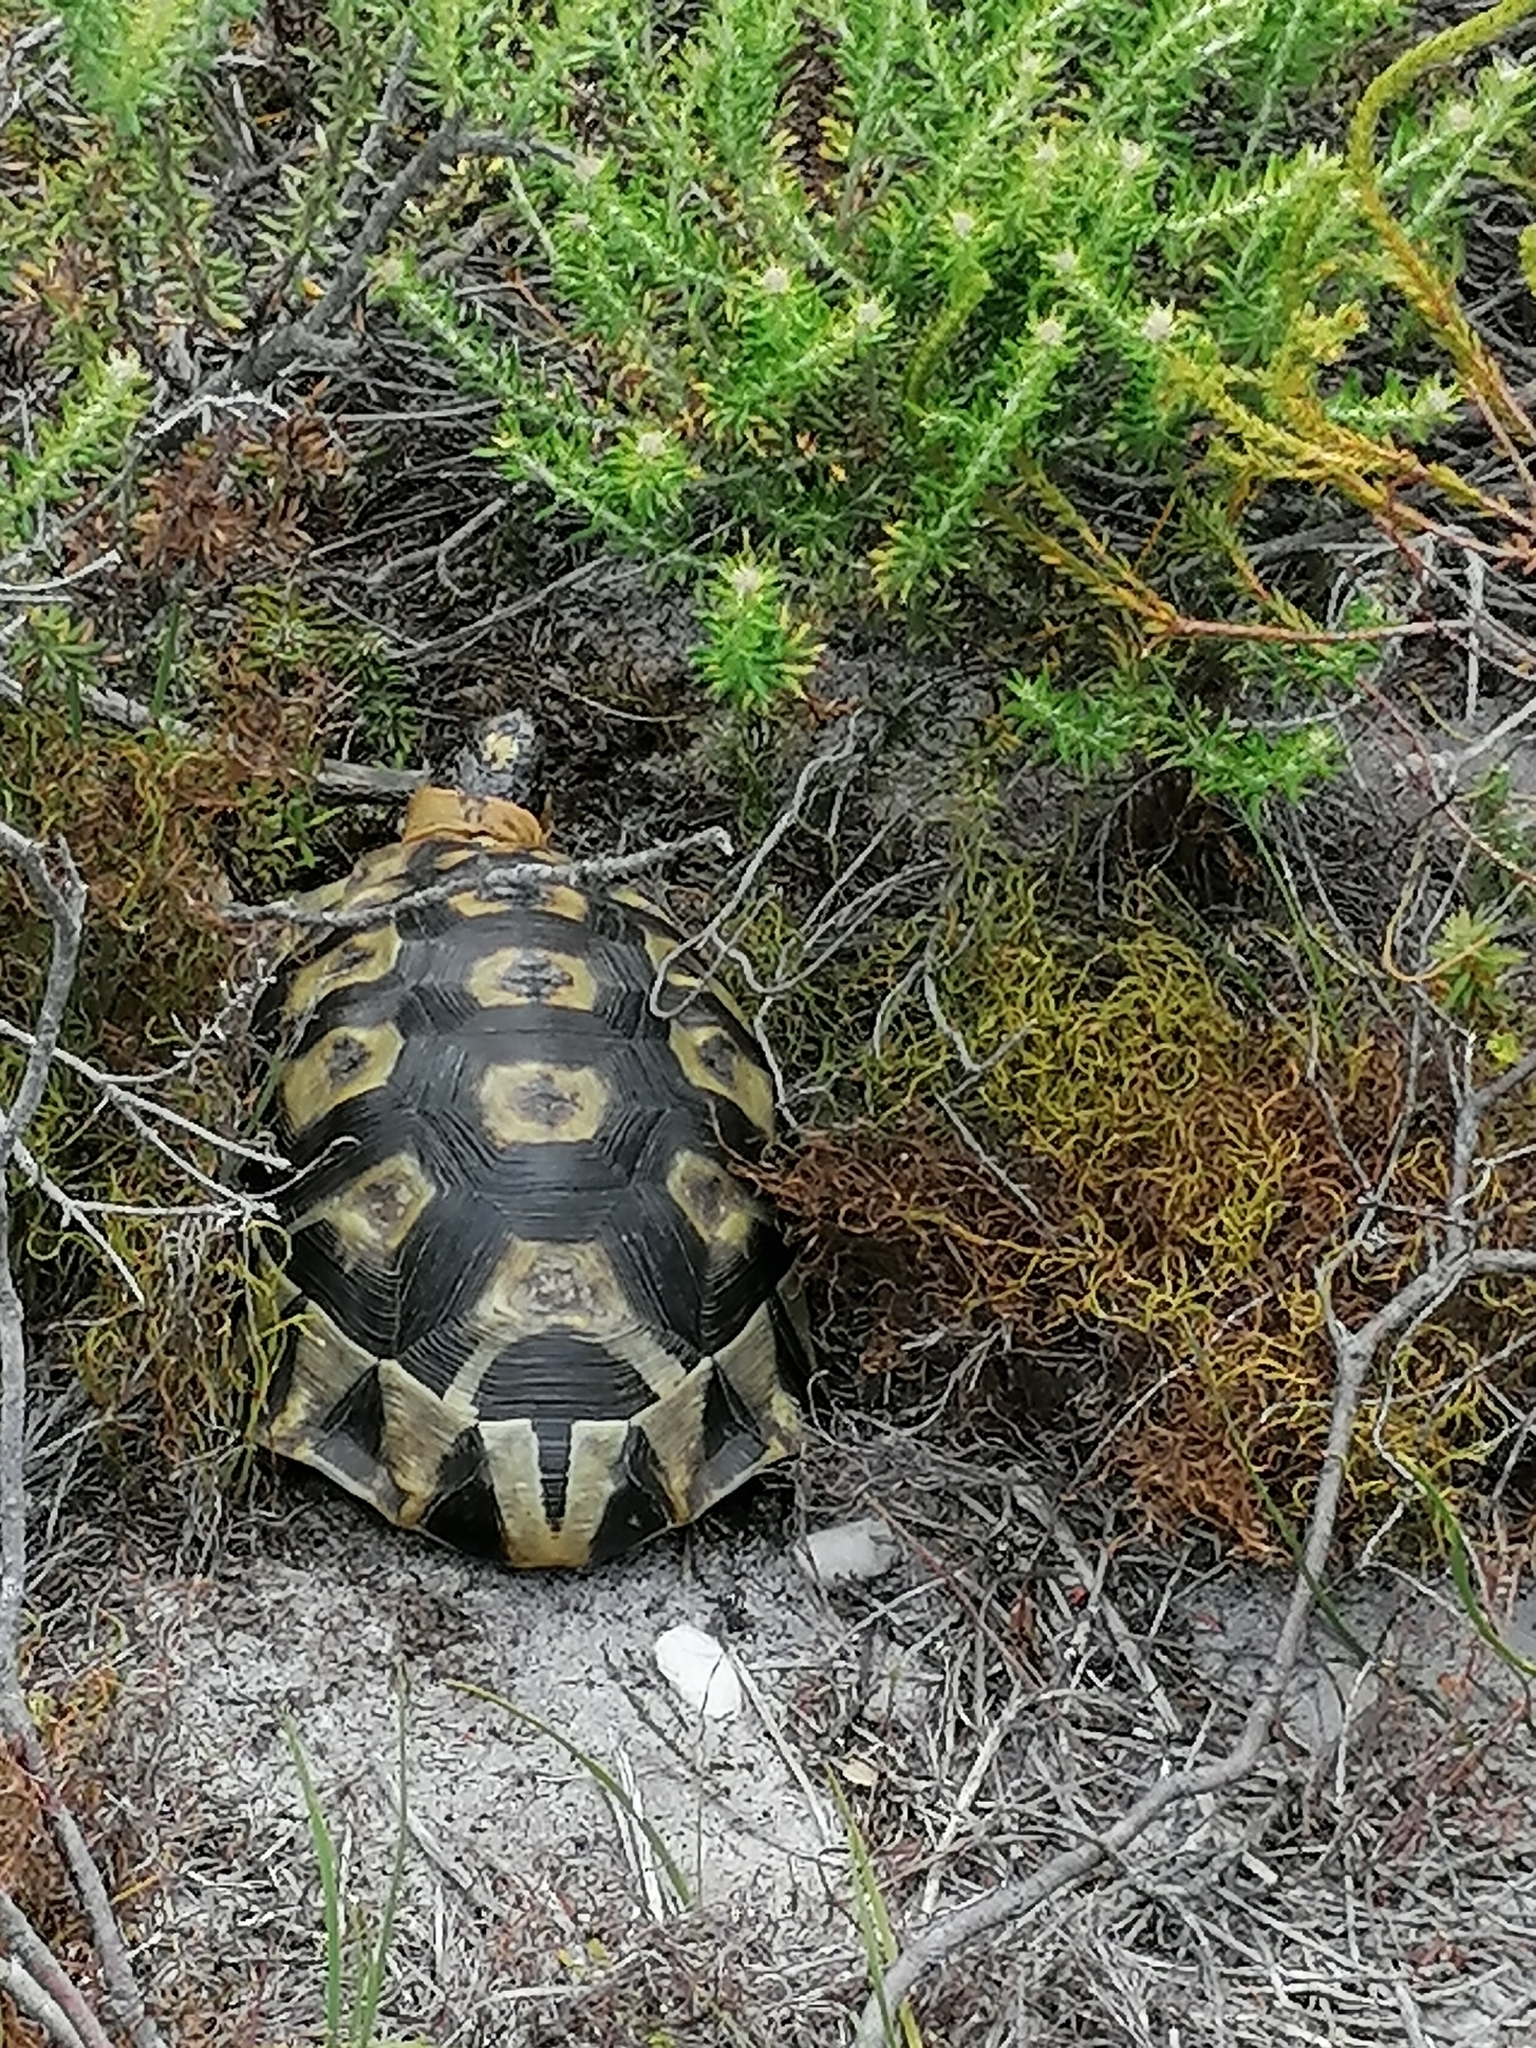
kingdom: Animalia
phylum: Chordata
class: Testudines
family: Testudinidae
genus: Chersina
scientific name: Chersina angulata
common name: South african bowsprit tortoise
